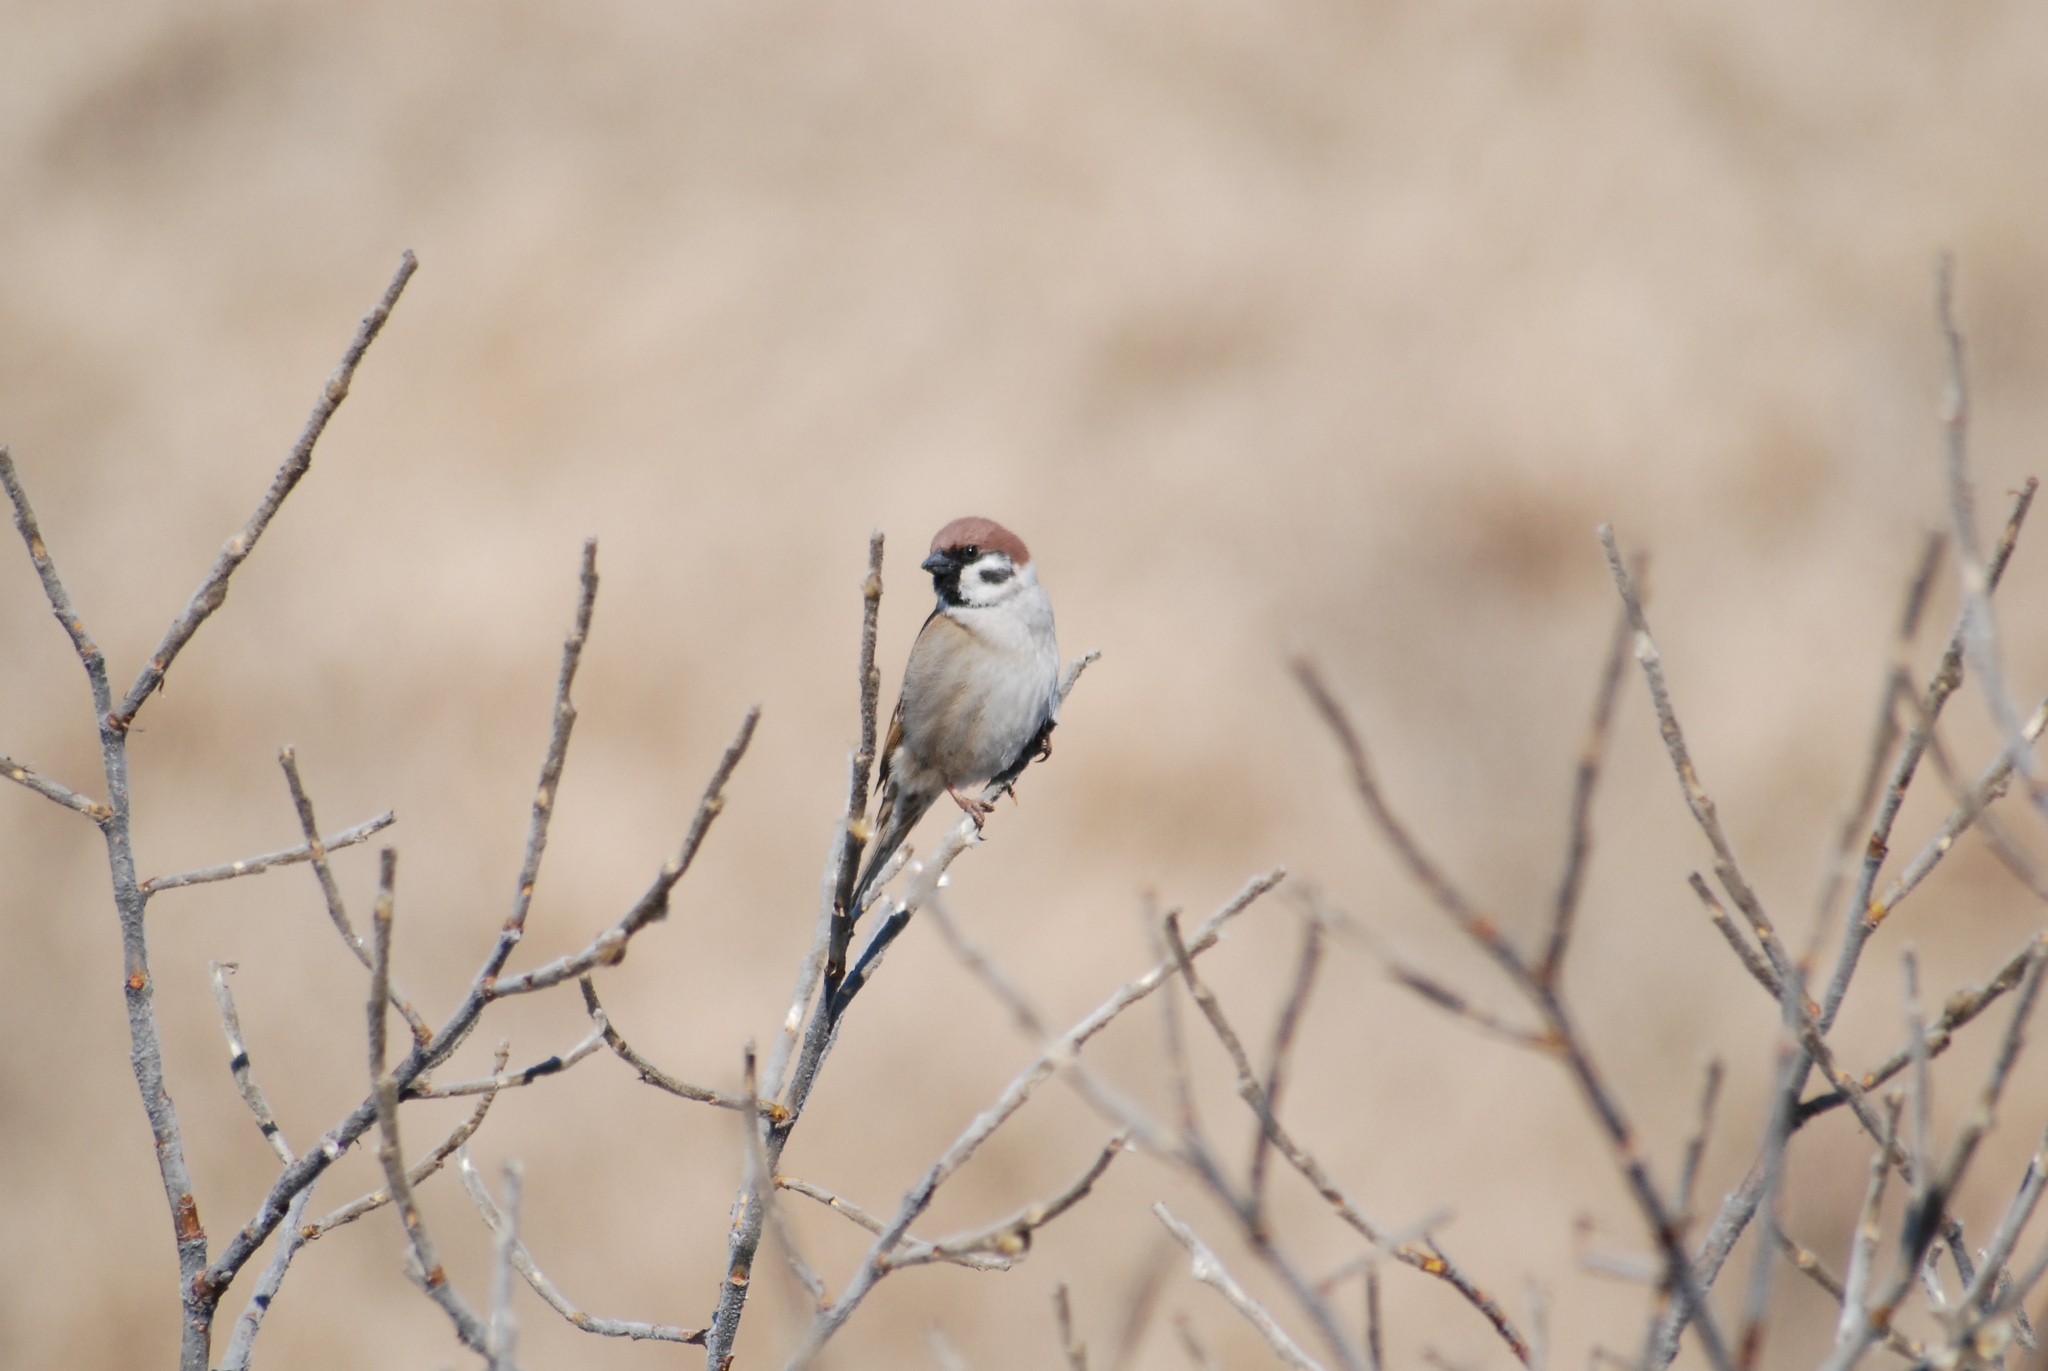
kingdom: Animalia
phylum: Chordata
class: Aves
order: Passeriformes
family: Passeridae
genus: Passer
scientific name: Passer montanus
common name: Eurasian tree sparrow
